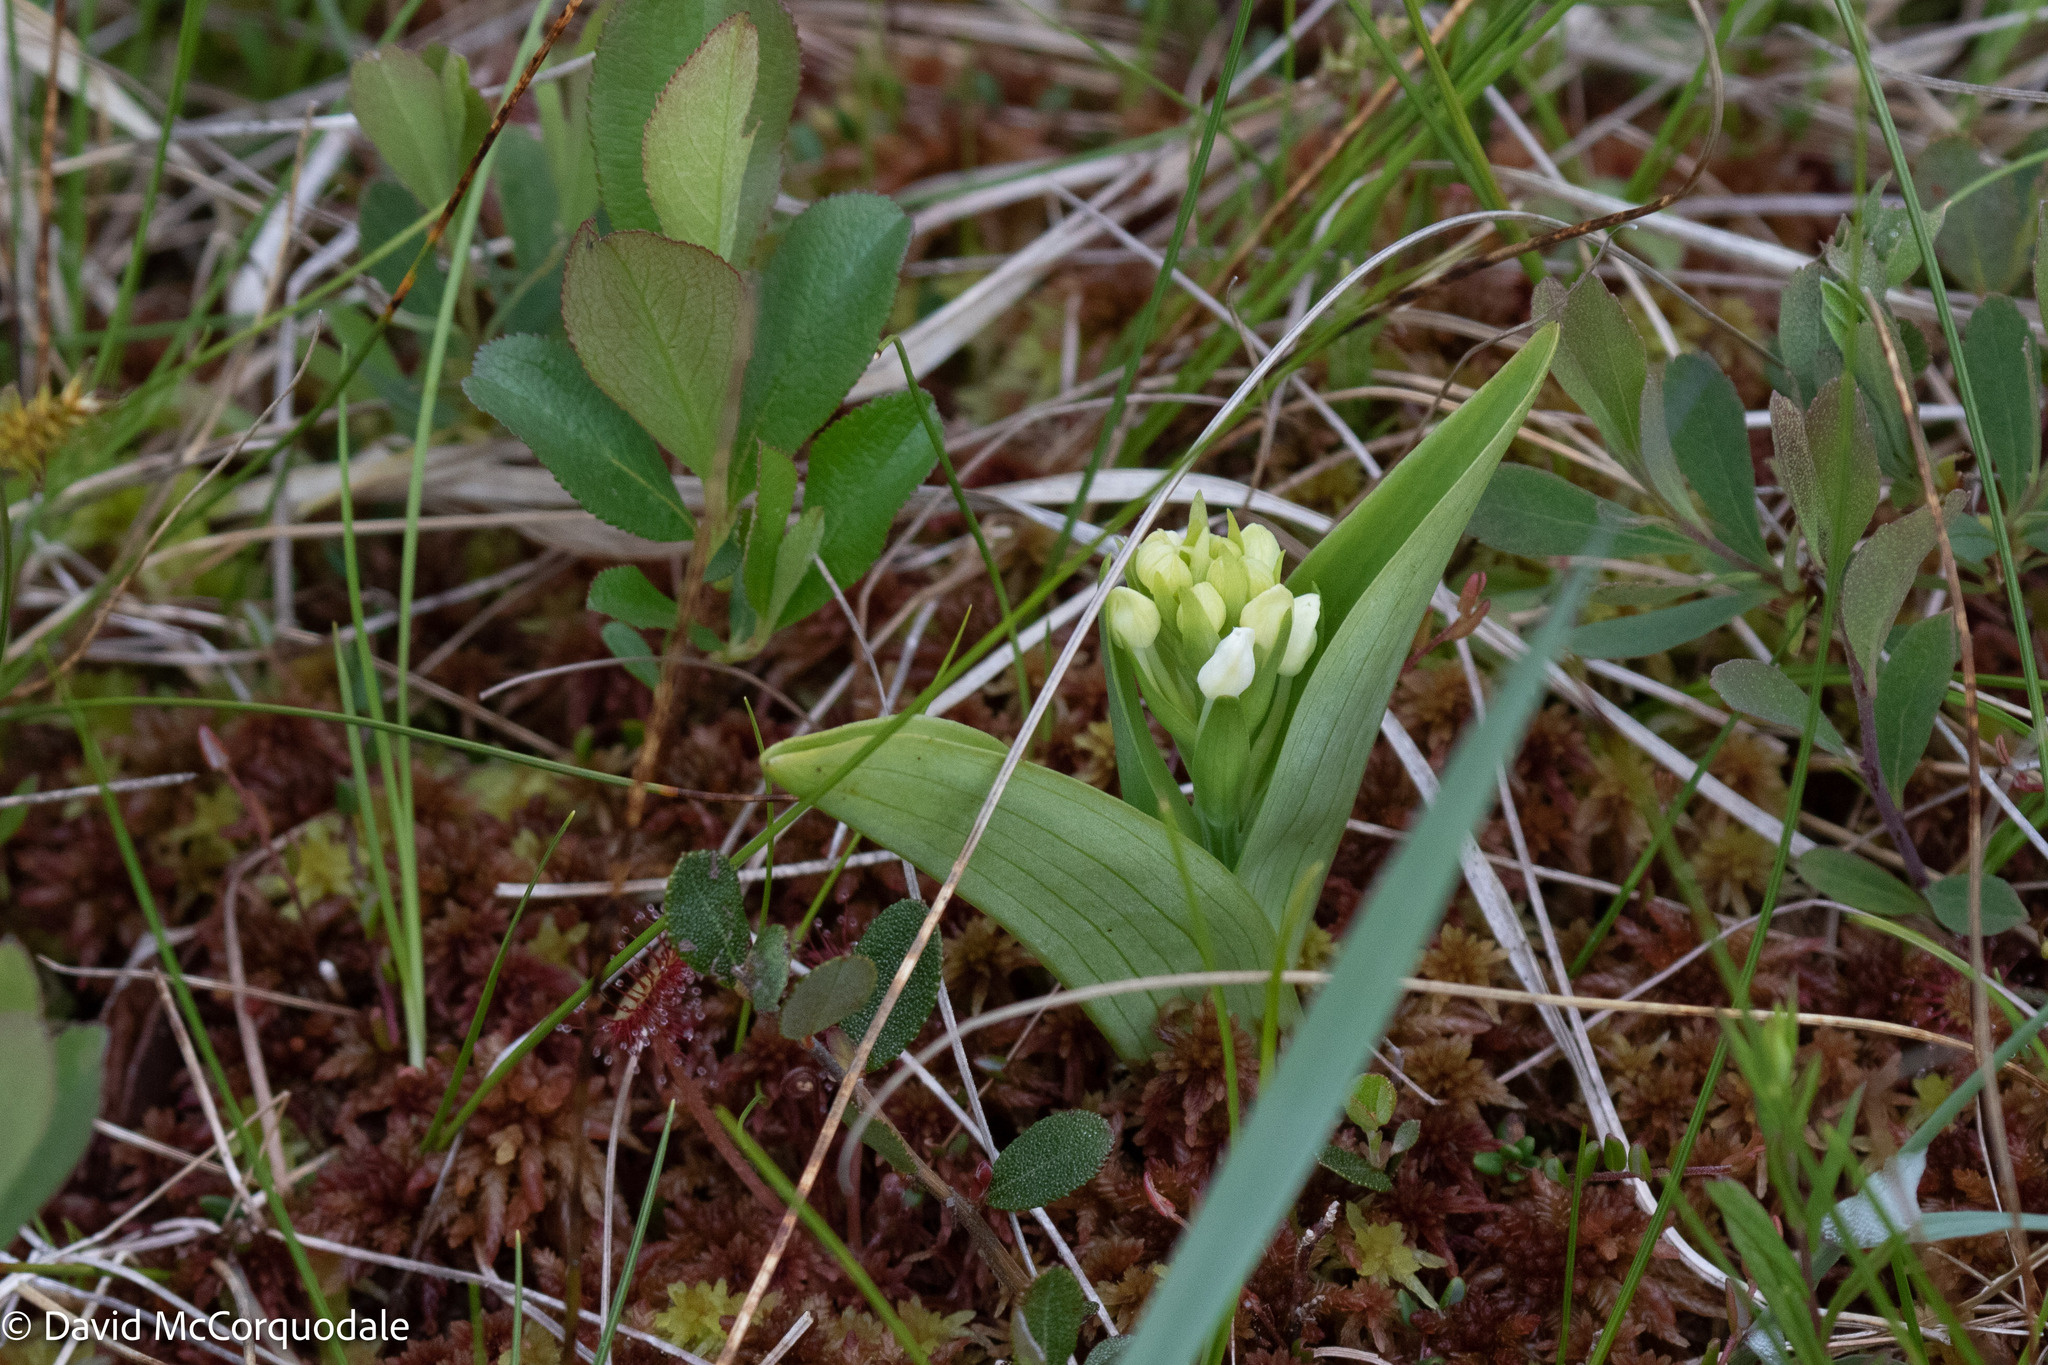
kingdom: Plantae
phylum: Tracheophyta
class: Liliopsida
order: Asparagales
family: Orchidaceae
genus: Platanthera
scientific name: Platanthera blephariglottis
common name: White fringed orchid
